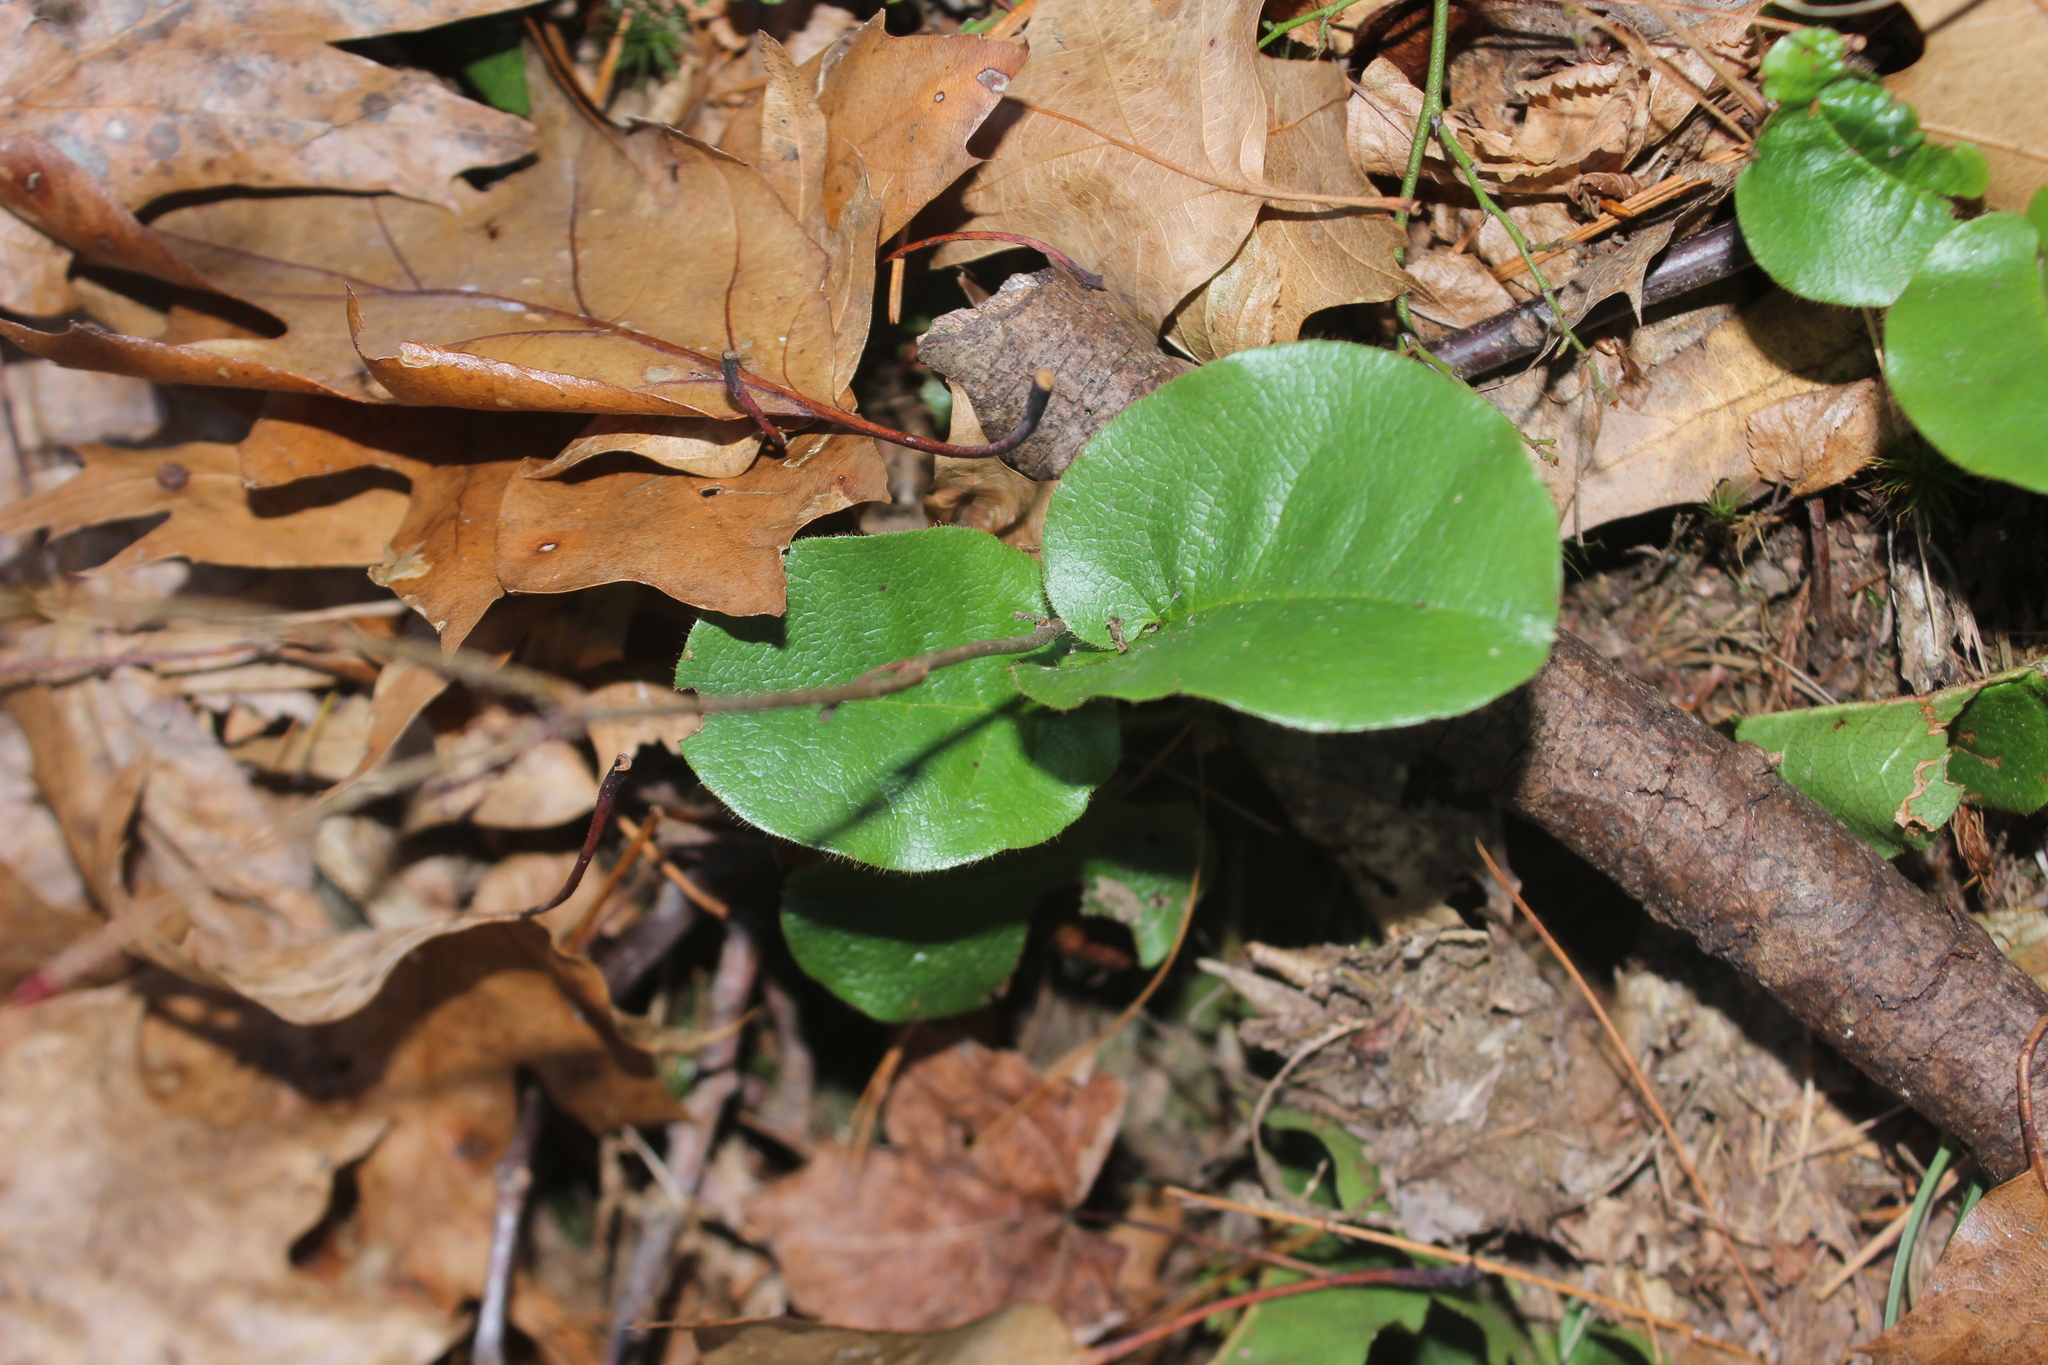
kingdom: Plantae
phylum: Tracheophyta
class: Magnoliopsida
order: Ericales
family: Ericaceae
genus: Epigaea
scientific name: Epigaea repens
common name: Gravelroot
